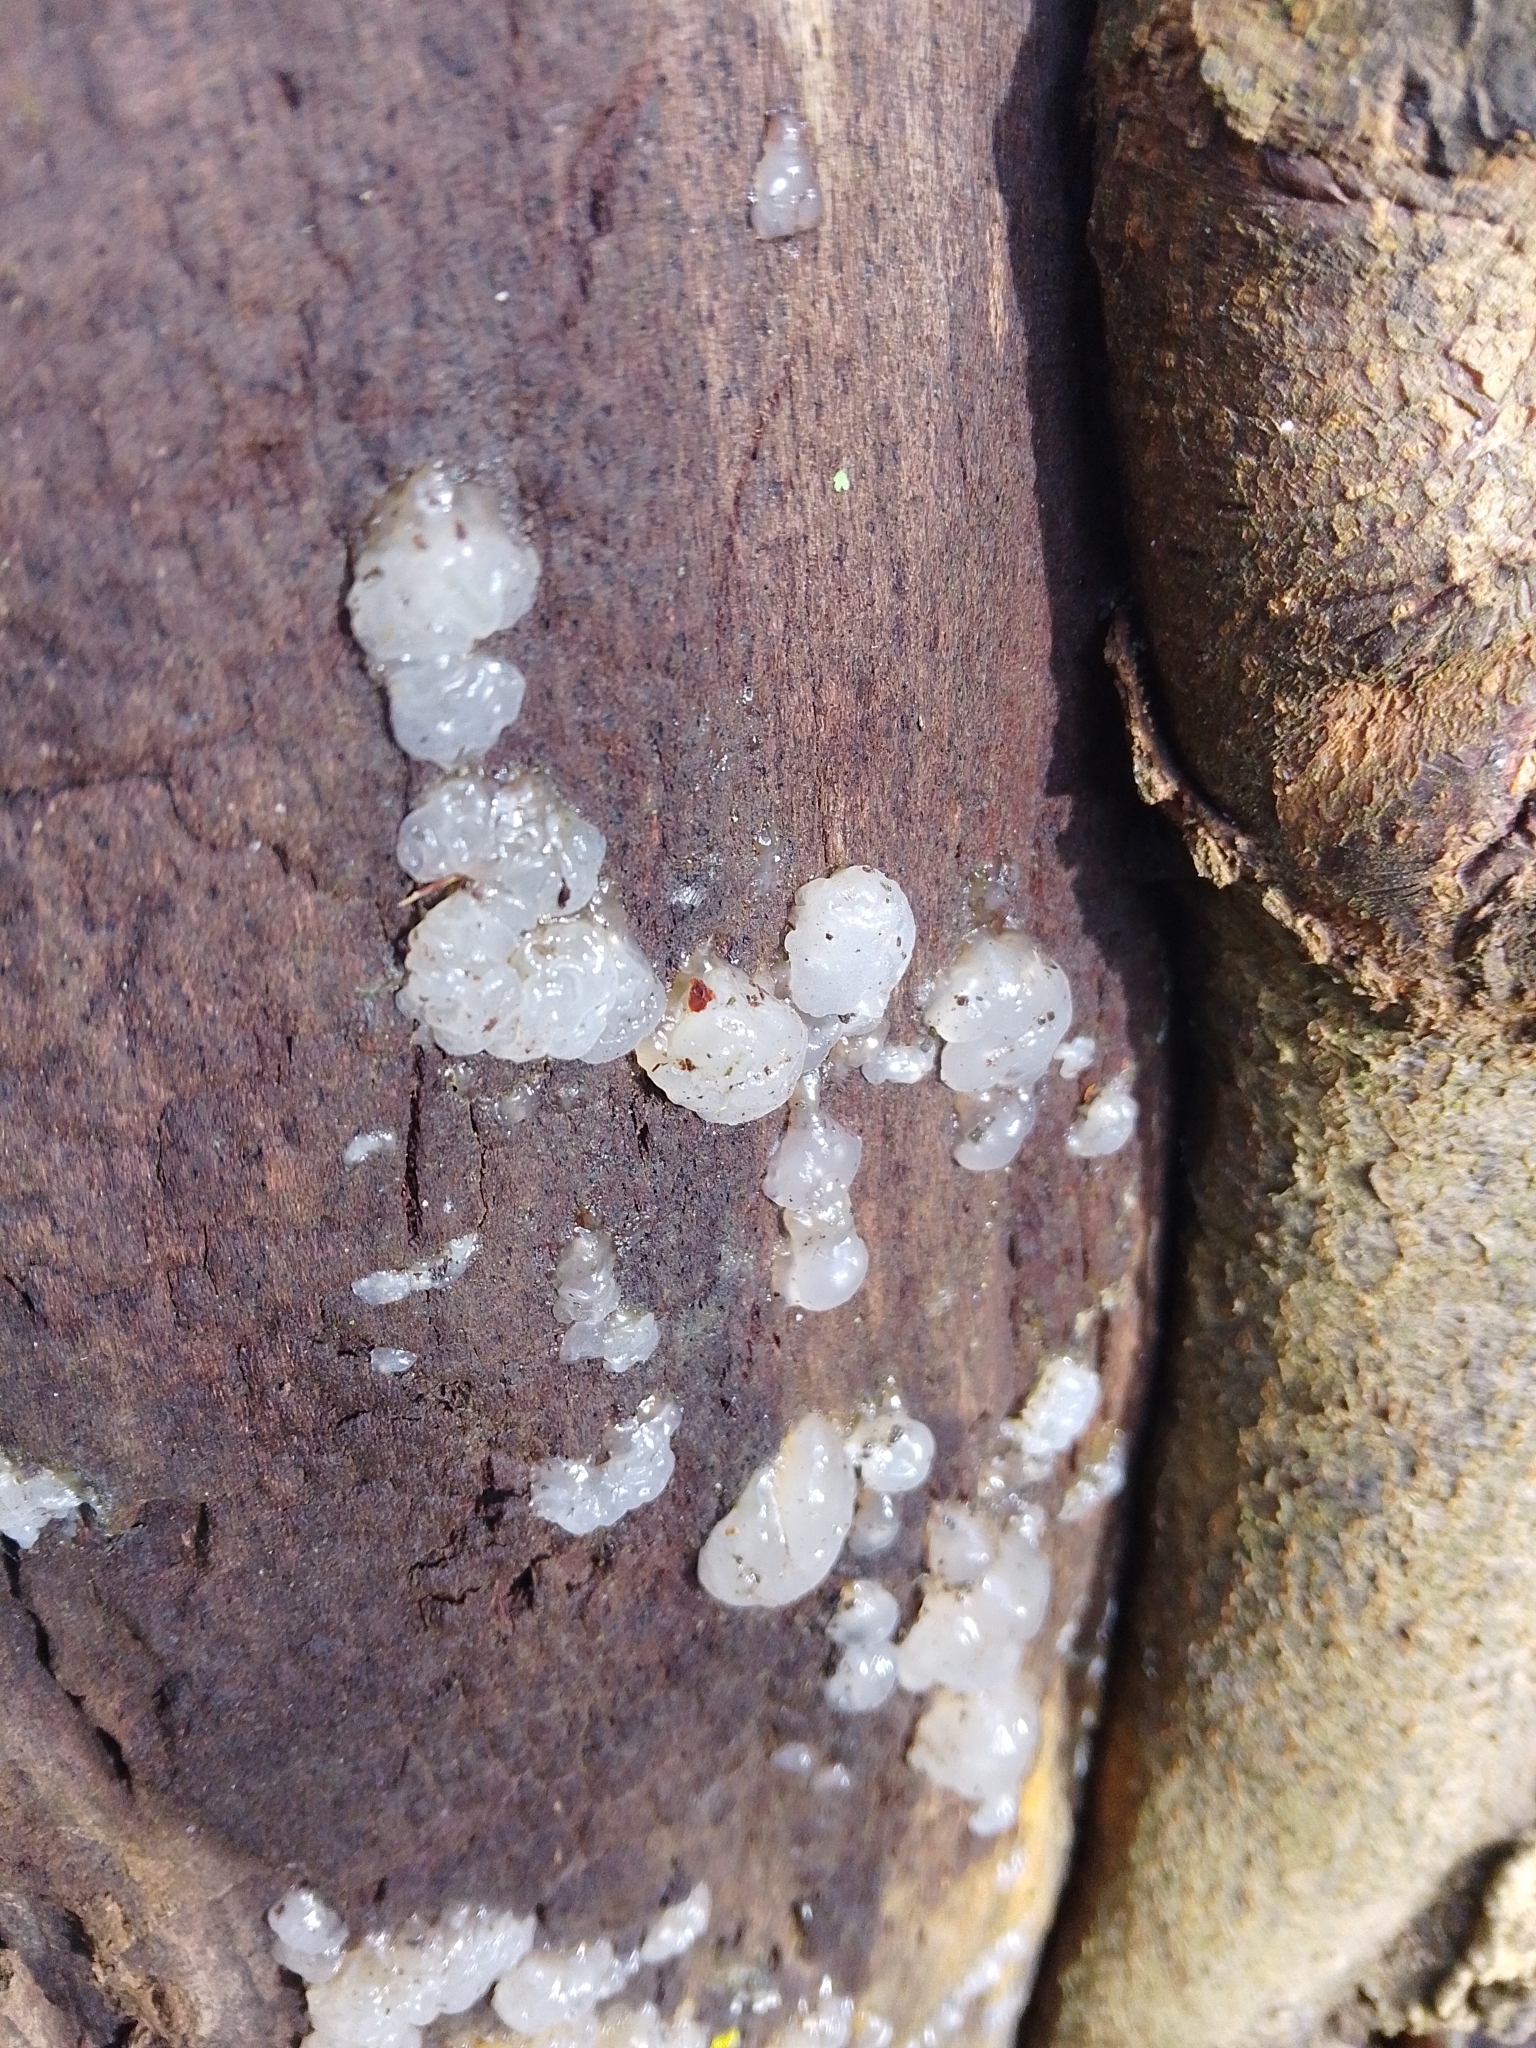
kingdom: Fungi
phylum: Basidiomycota
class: Agaricomycetes
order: Auriculariales
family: Hyaloriaceae
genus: Myxarium
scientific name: Myxarium nucleatum
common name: Crystal brain fungus
